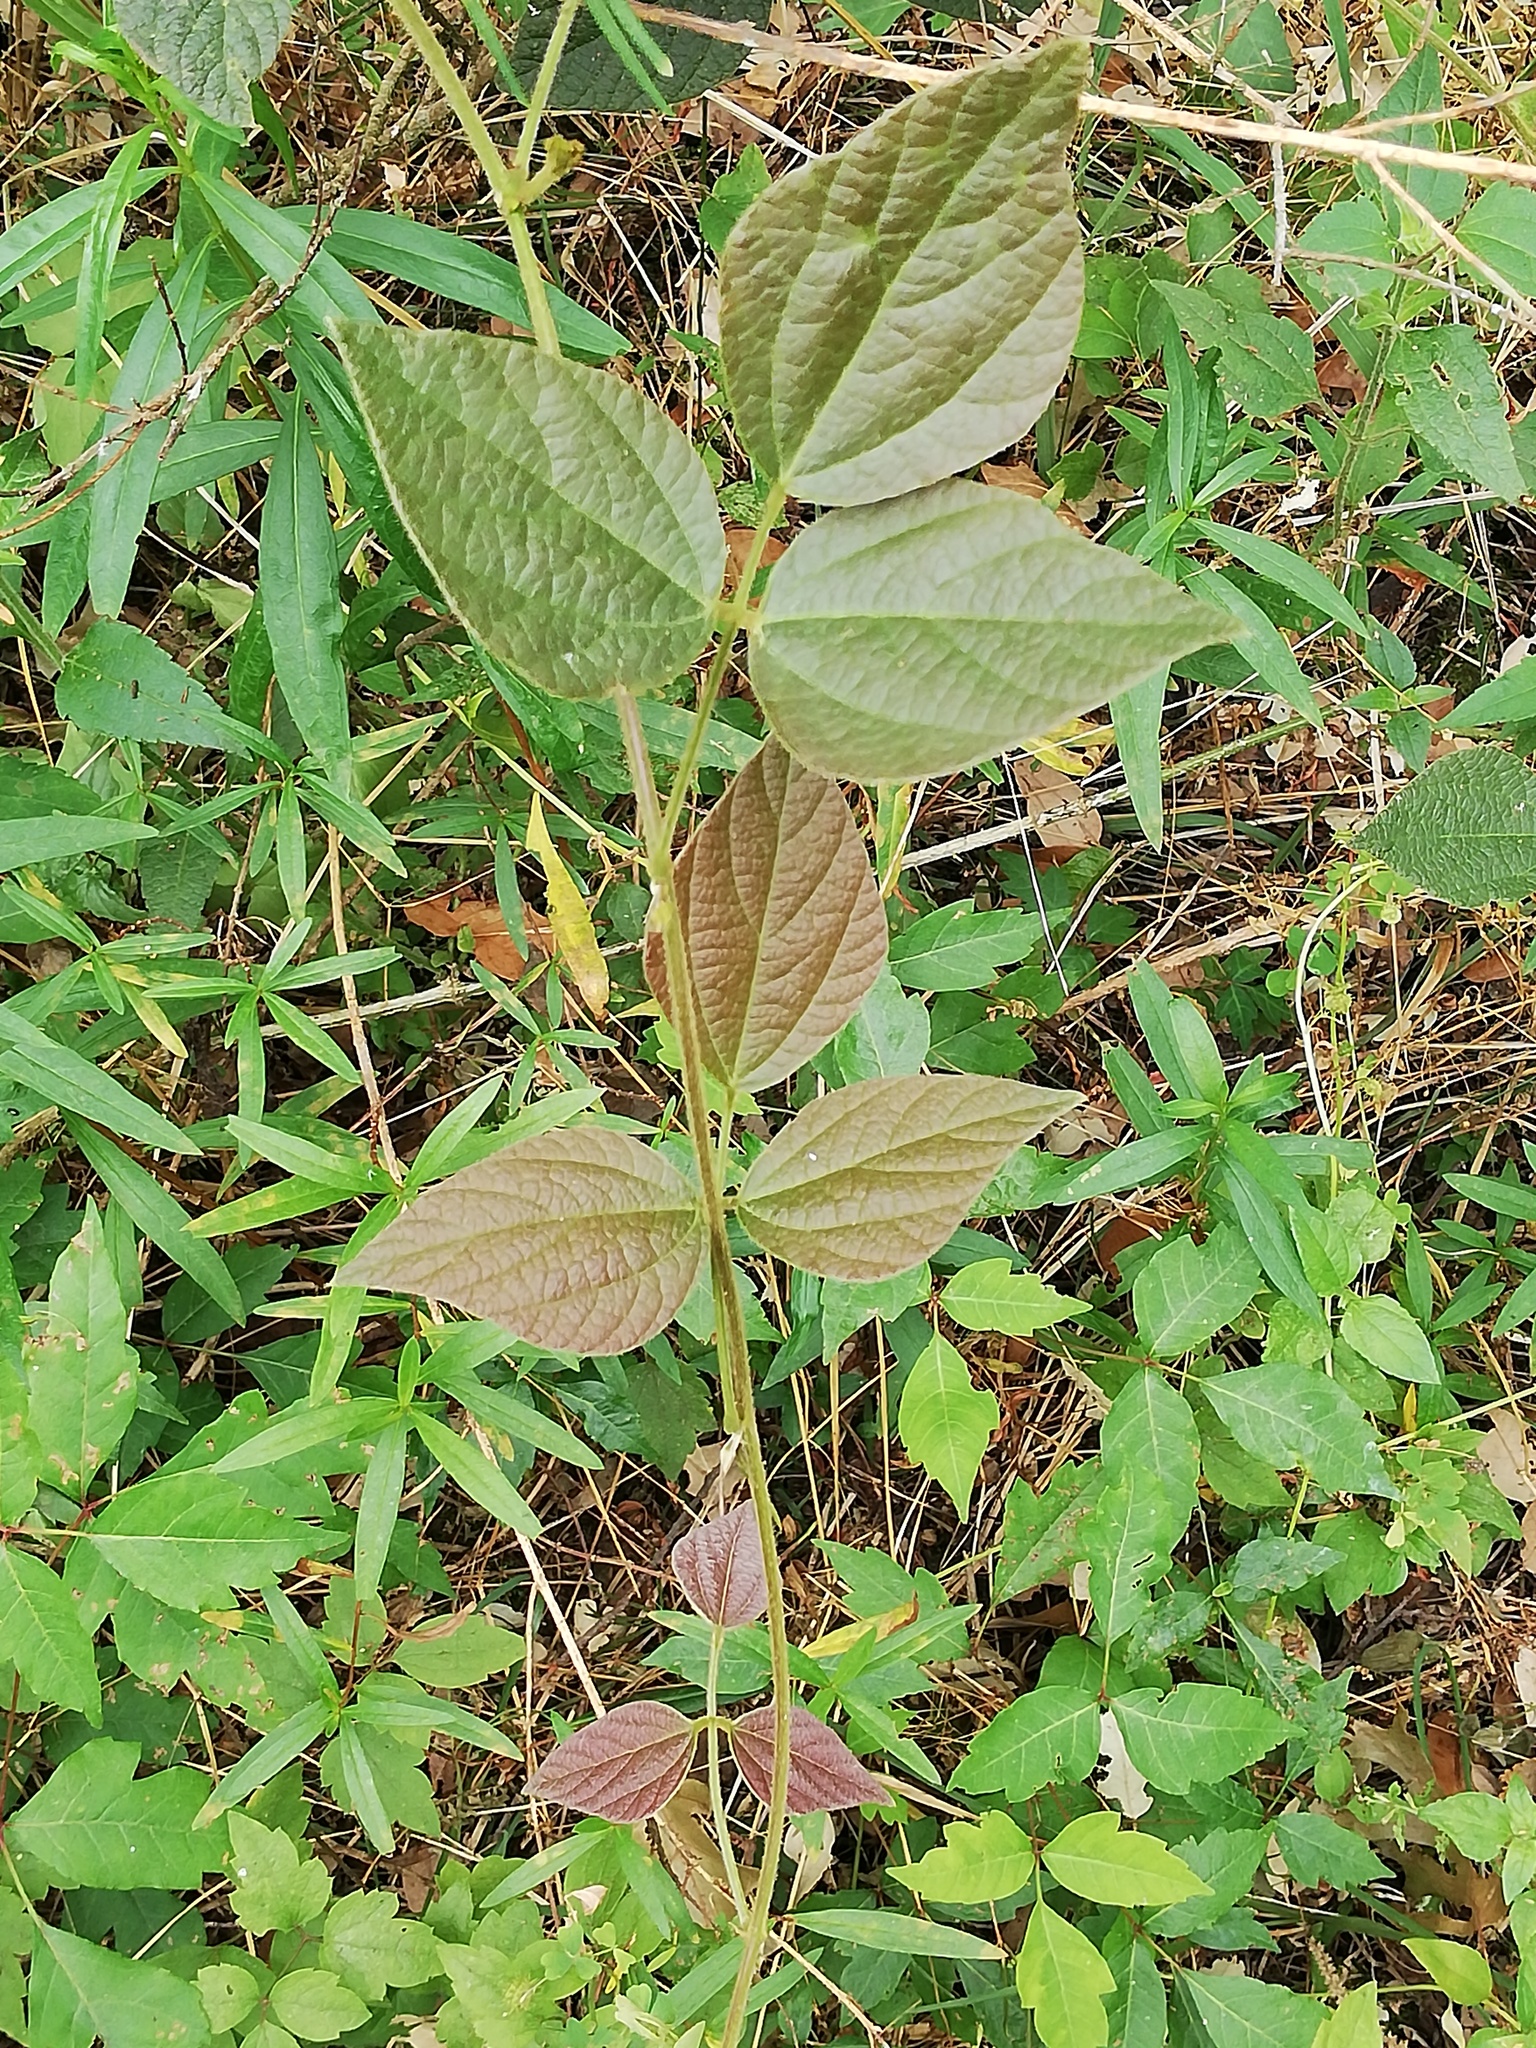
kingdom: Plantae
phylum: Tracheophyta
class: Magnoliopsida
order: Fabales
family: Fabaceae
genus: Desmodium
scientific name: Desmodium lindheimeri
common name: Lindheimer's tick-trefoil
